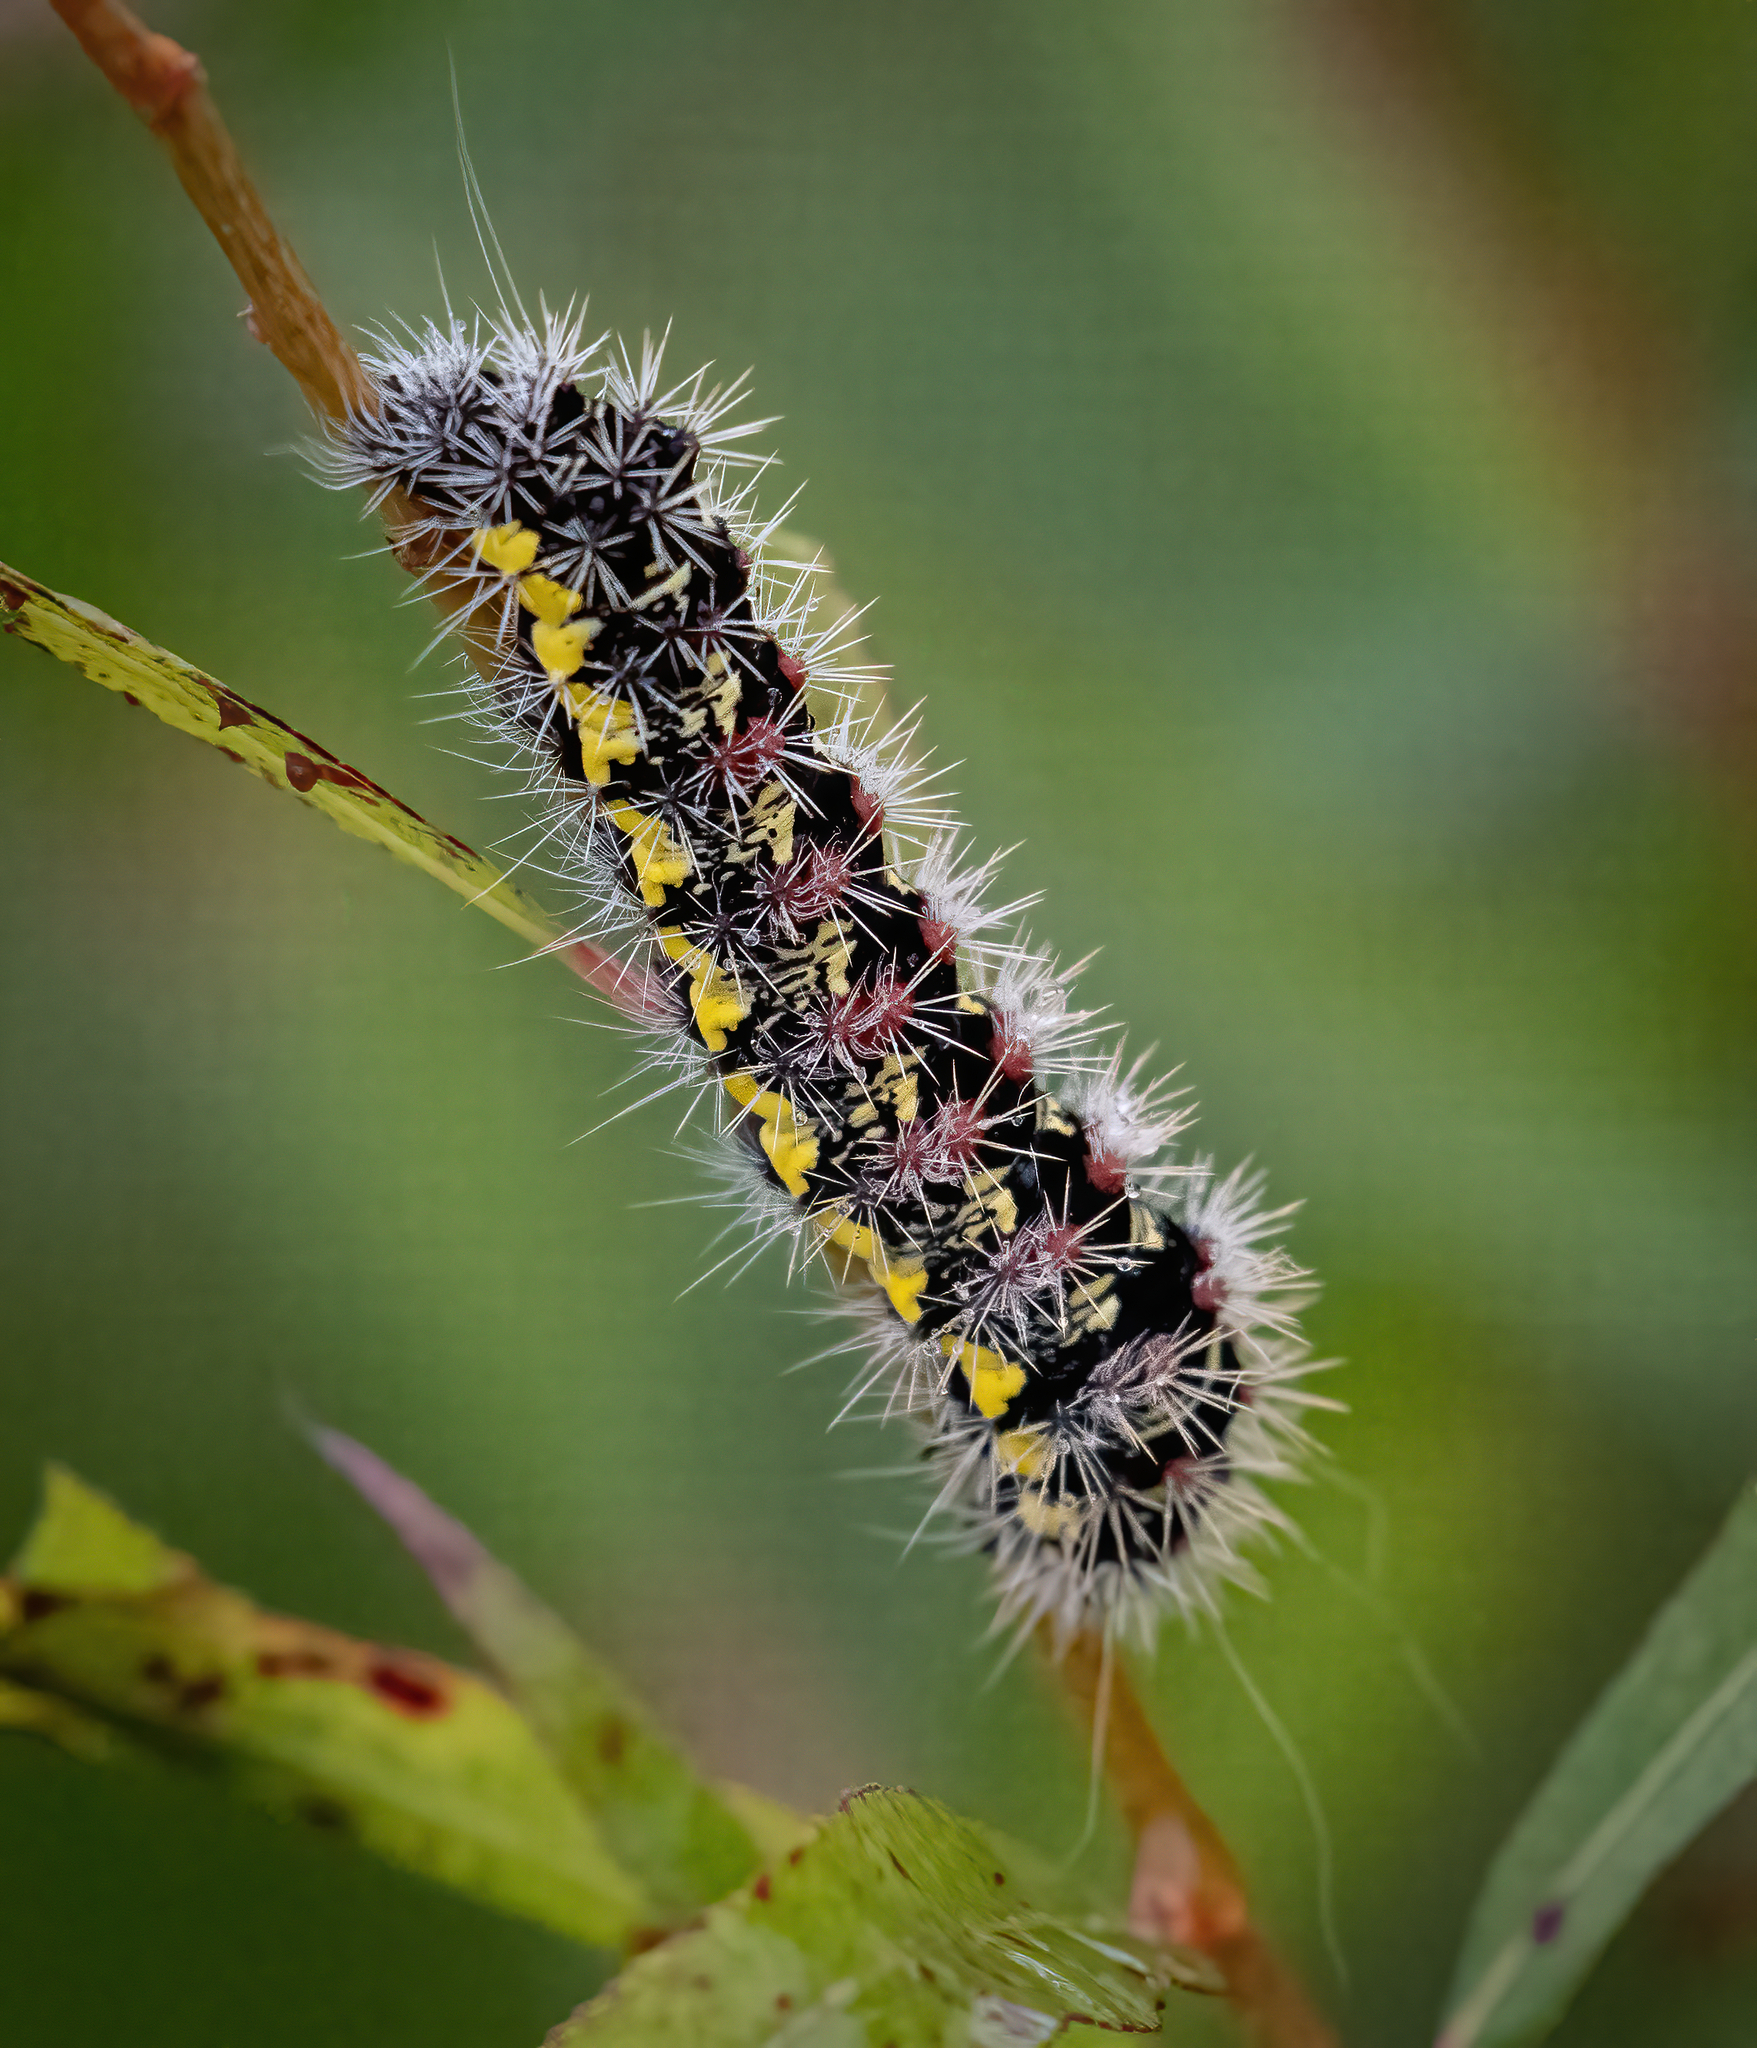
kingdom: Animalia
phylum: Arthropoda
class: Insecta
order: Lepidoptera
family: Noctuidae
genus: Acronicta
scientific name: Acronicta oblinita
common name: Smeared dagger
